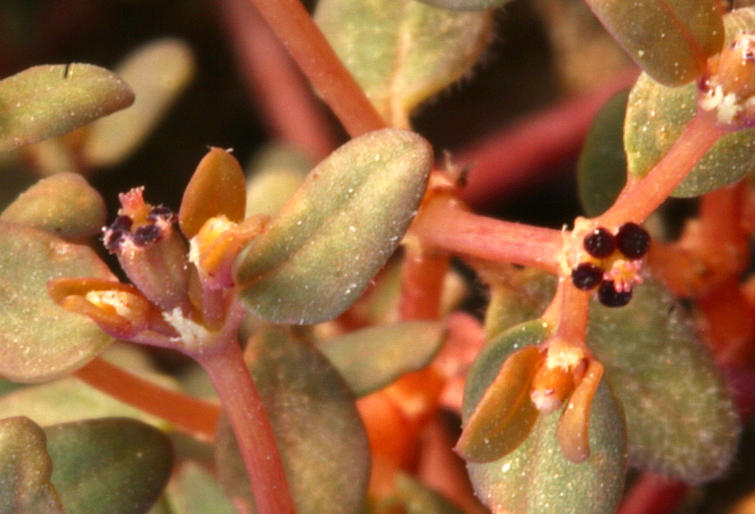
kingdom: Plantae
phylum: Tracheophyta
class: Magnoliopsida
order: Malpighiales
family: Euphorbiaceae
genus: Euphorbia
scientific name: Euphorbia parishii
